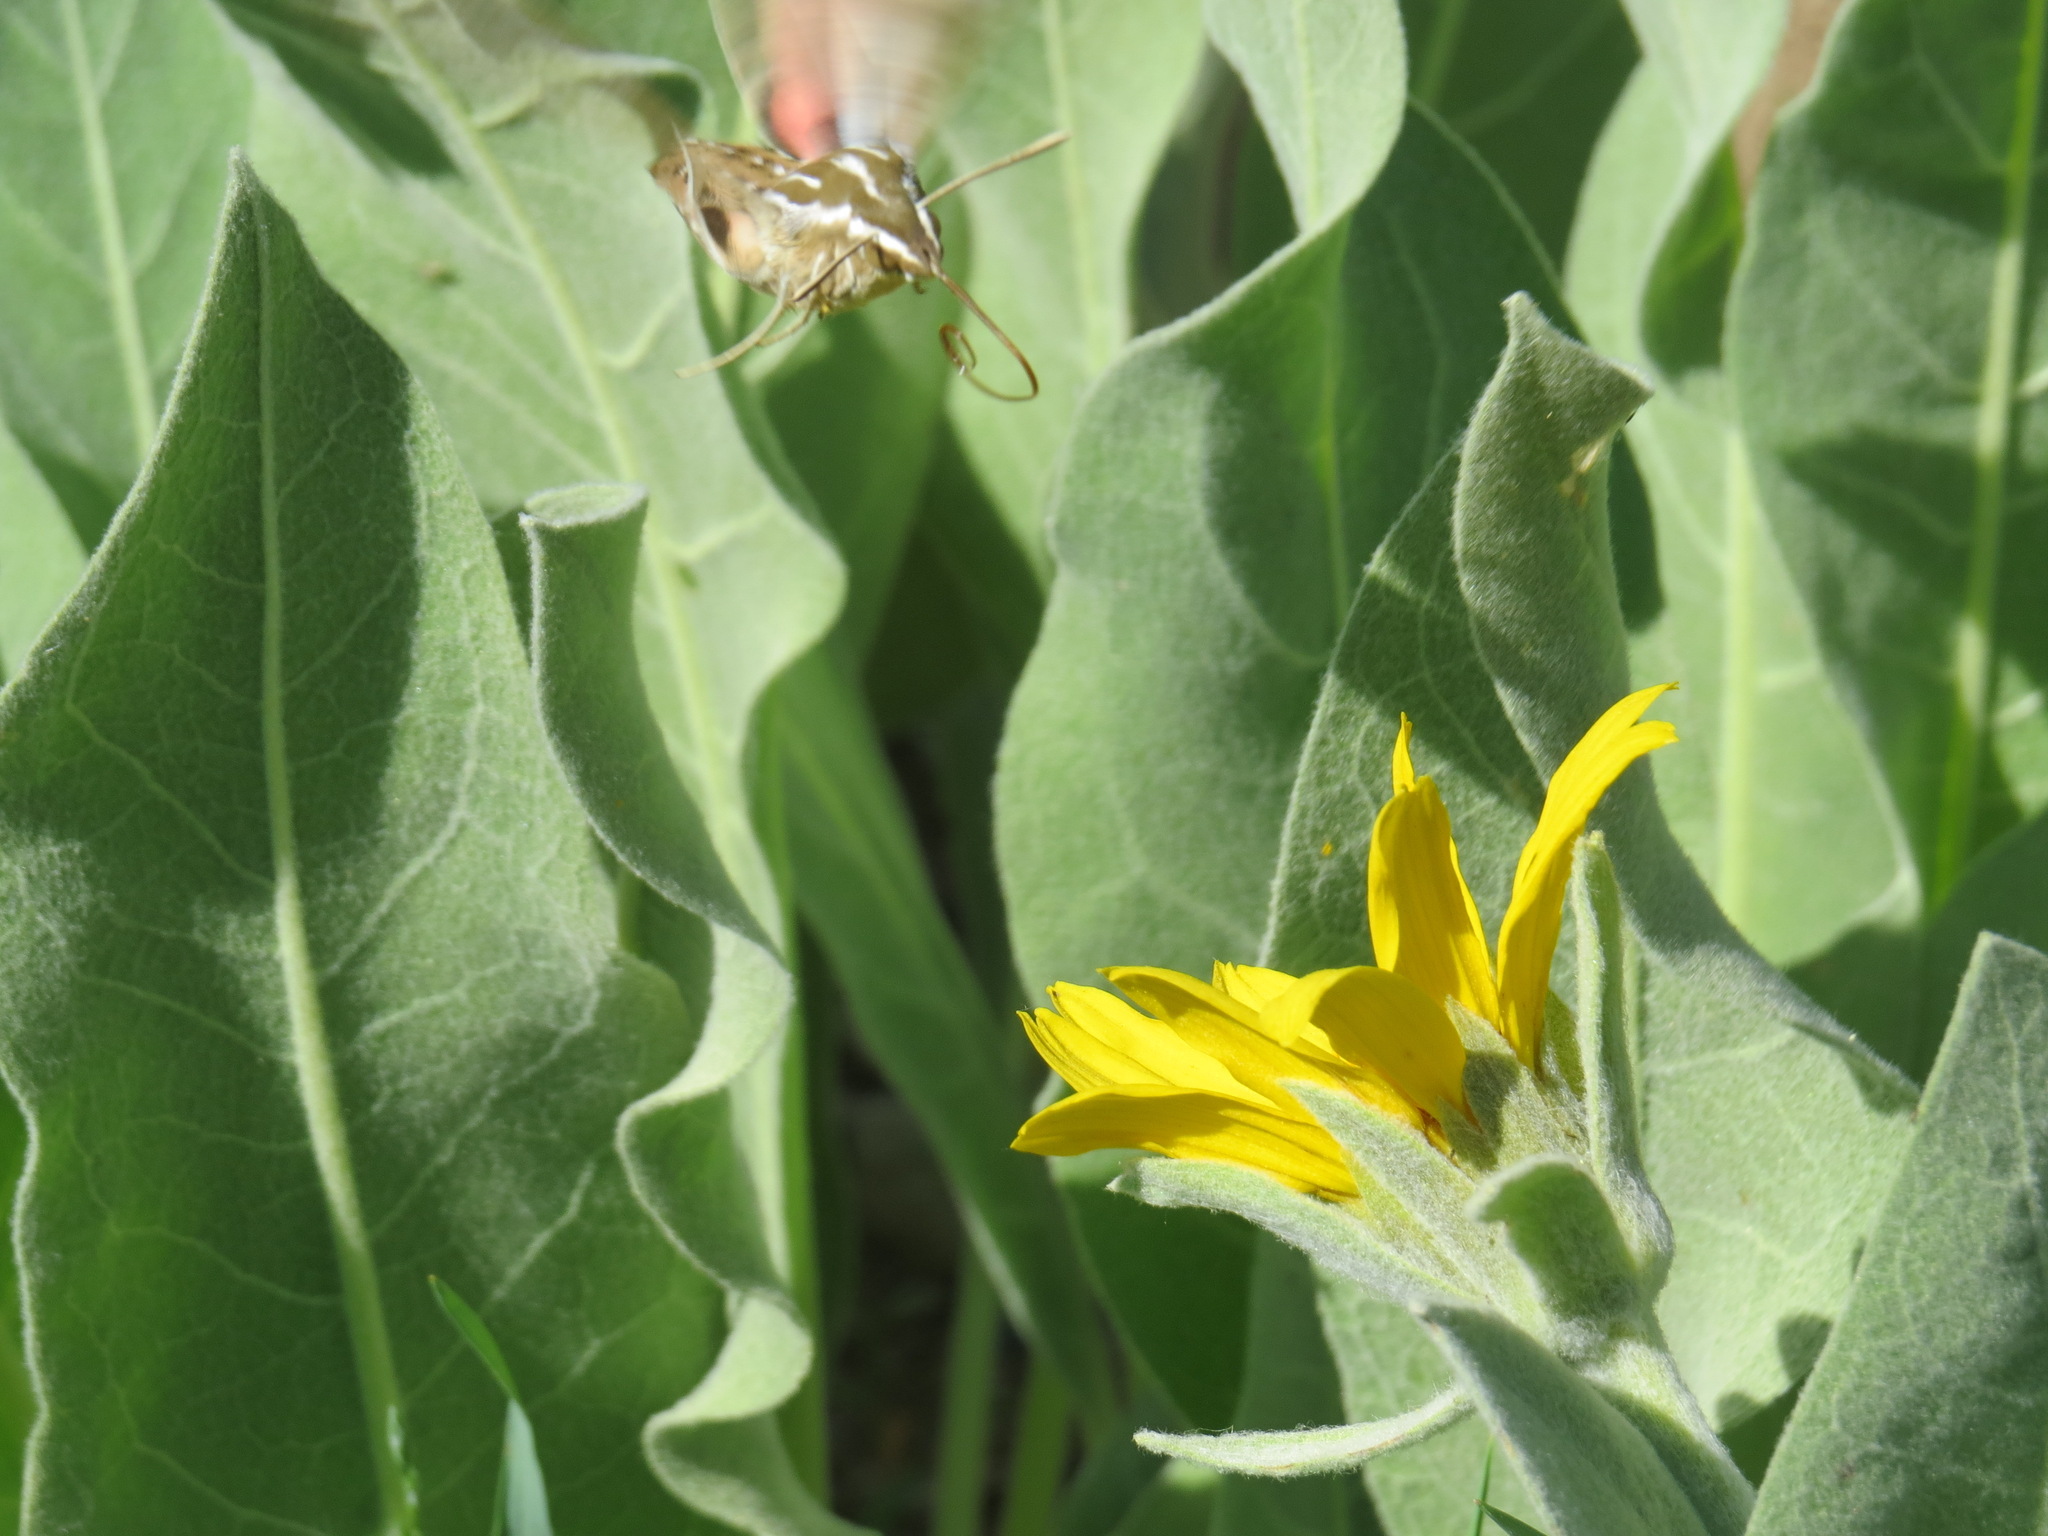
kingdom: Animalia
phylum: Arthropoda
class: Insecta
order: Lepidoptera
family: Sphingidae
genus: Hyles
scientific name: Hyles lineata
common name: White-lined sphinx
